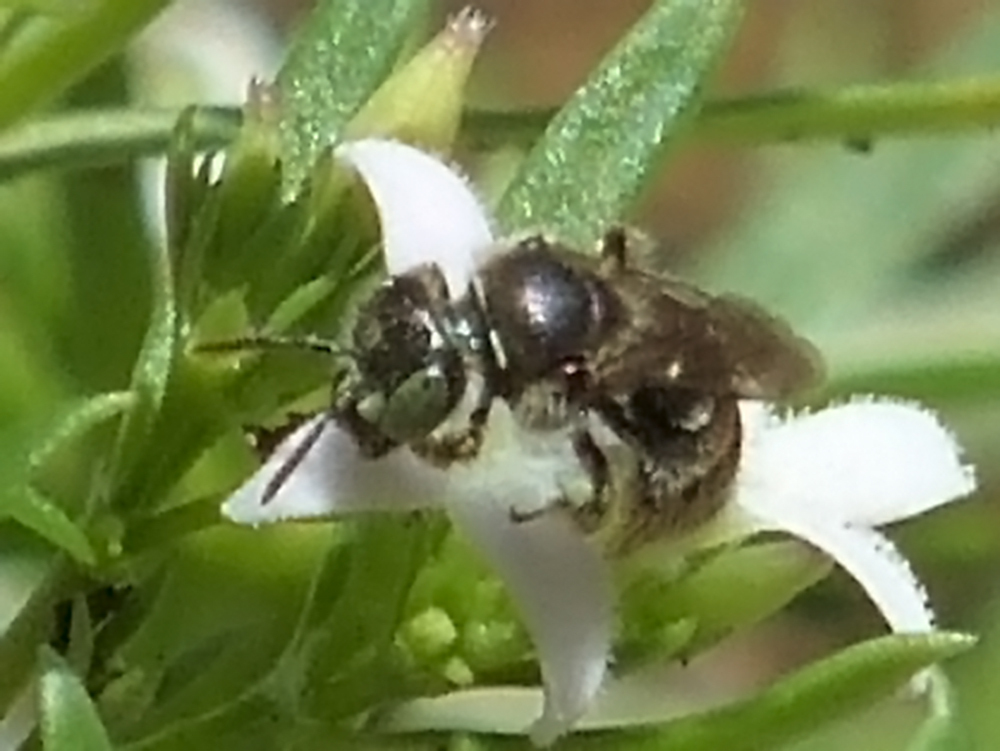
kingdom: Animalia
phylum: Arthropoda
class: Insecta
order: Hymenoptera
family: Andrenidae
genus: Calliopsis
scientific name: Calliopsis andreniformis
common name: Eastern calliopsis bee
